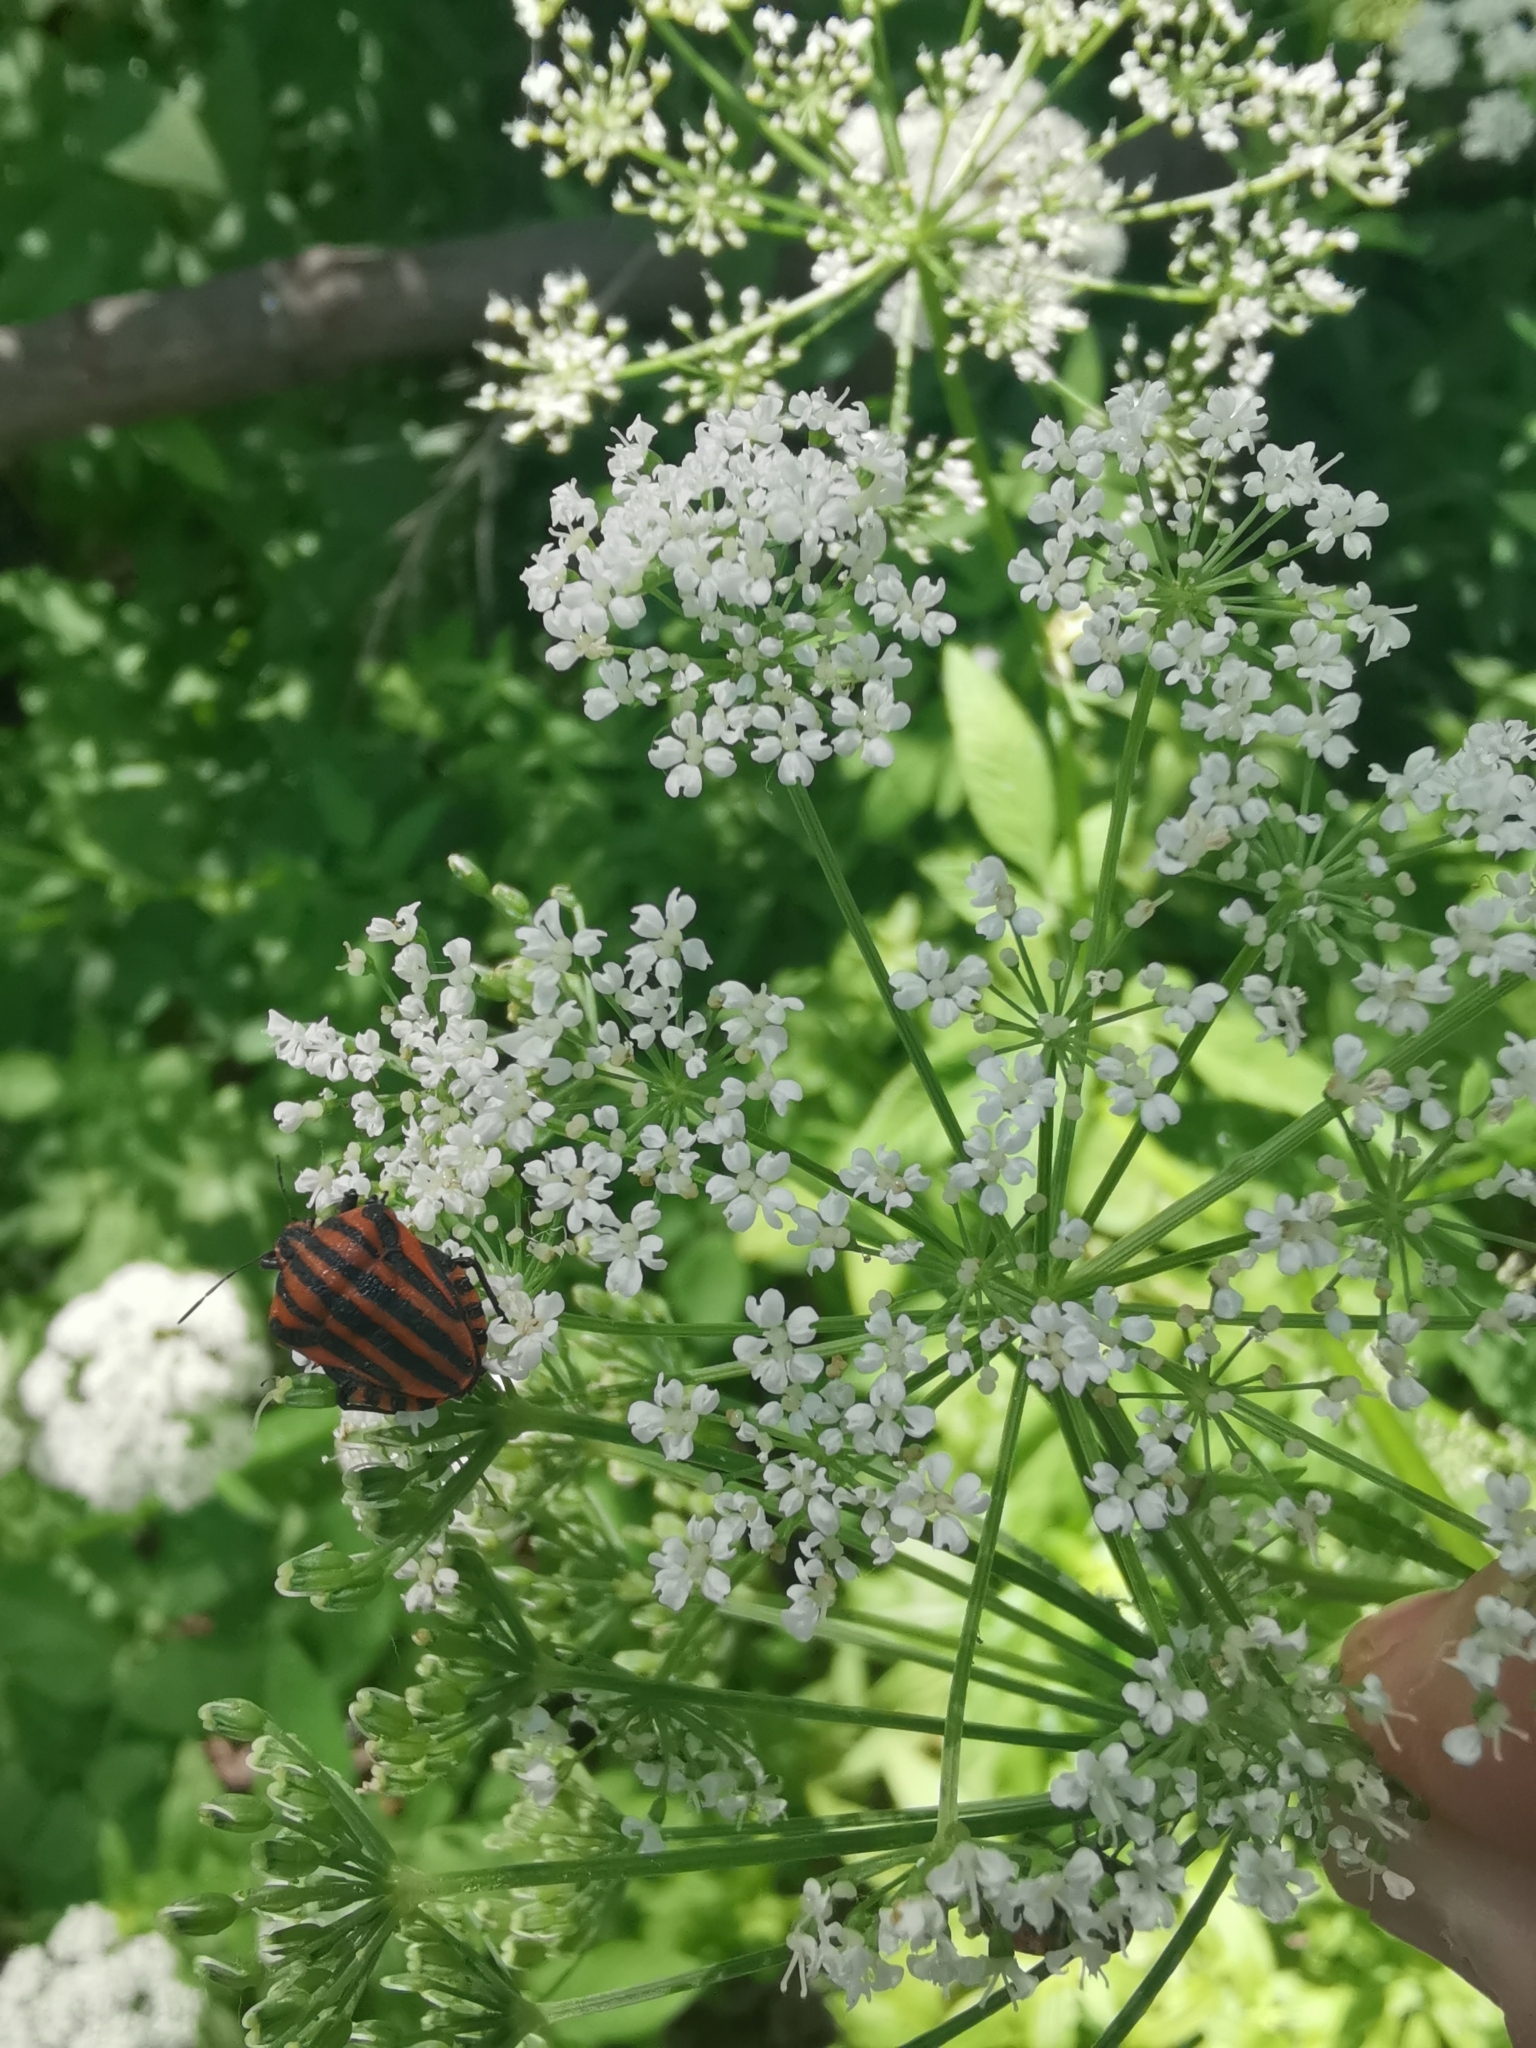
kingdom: Animalia
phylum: Arthropoda
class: Insecta
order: Hemiptera
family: Pentatomidae
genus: Graphosoma
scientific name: Graphosoma italicum
